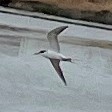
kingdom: Animalia
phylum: Chordata
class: Aves
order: Charadriiformes
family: Laridae
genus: Sterna
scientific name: Sterna forsteri
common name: Forster's tern
